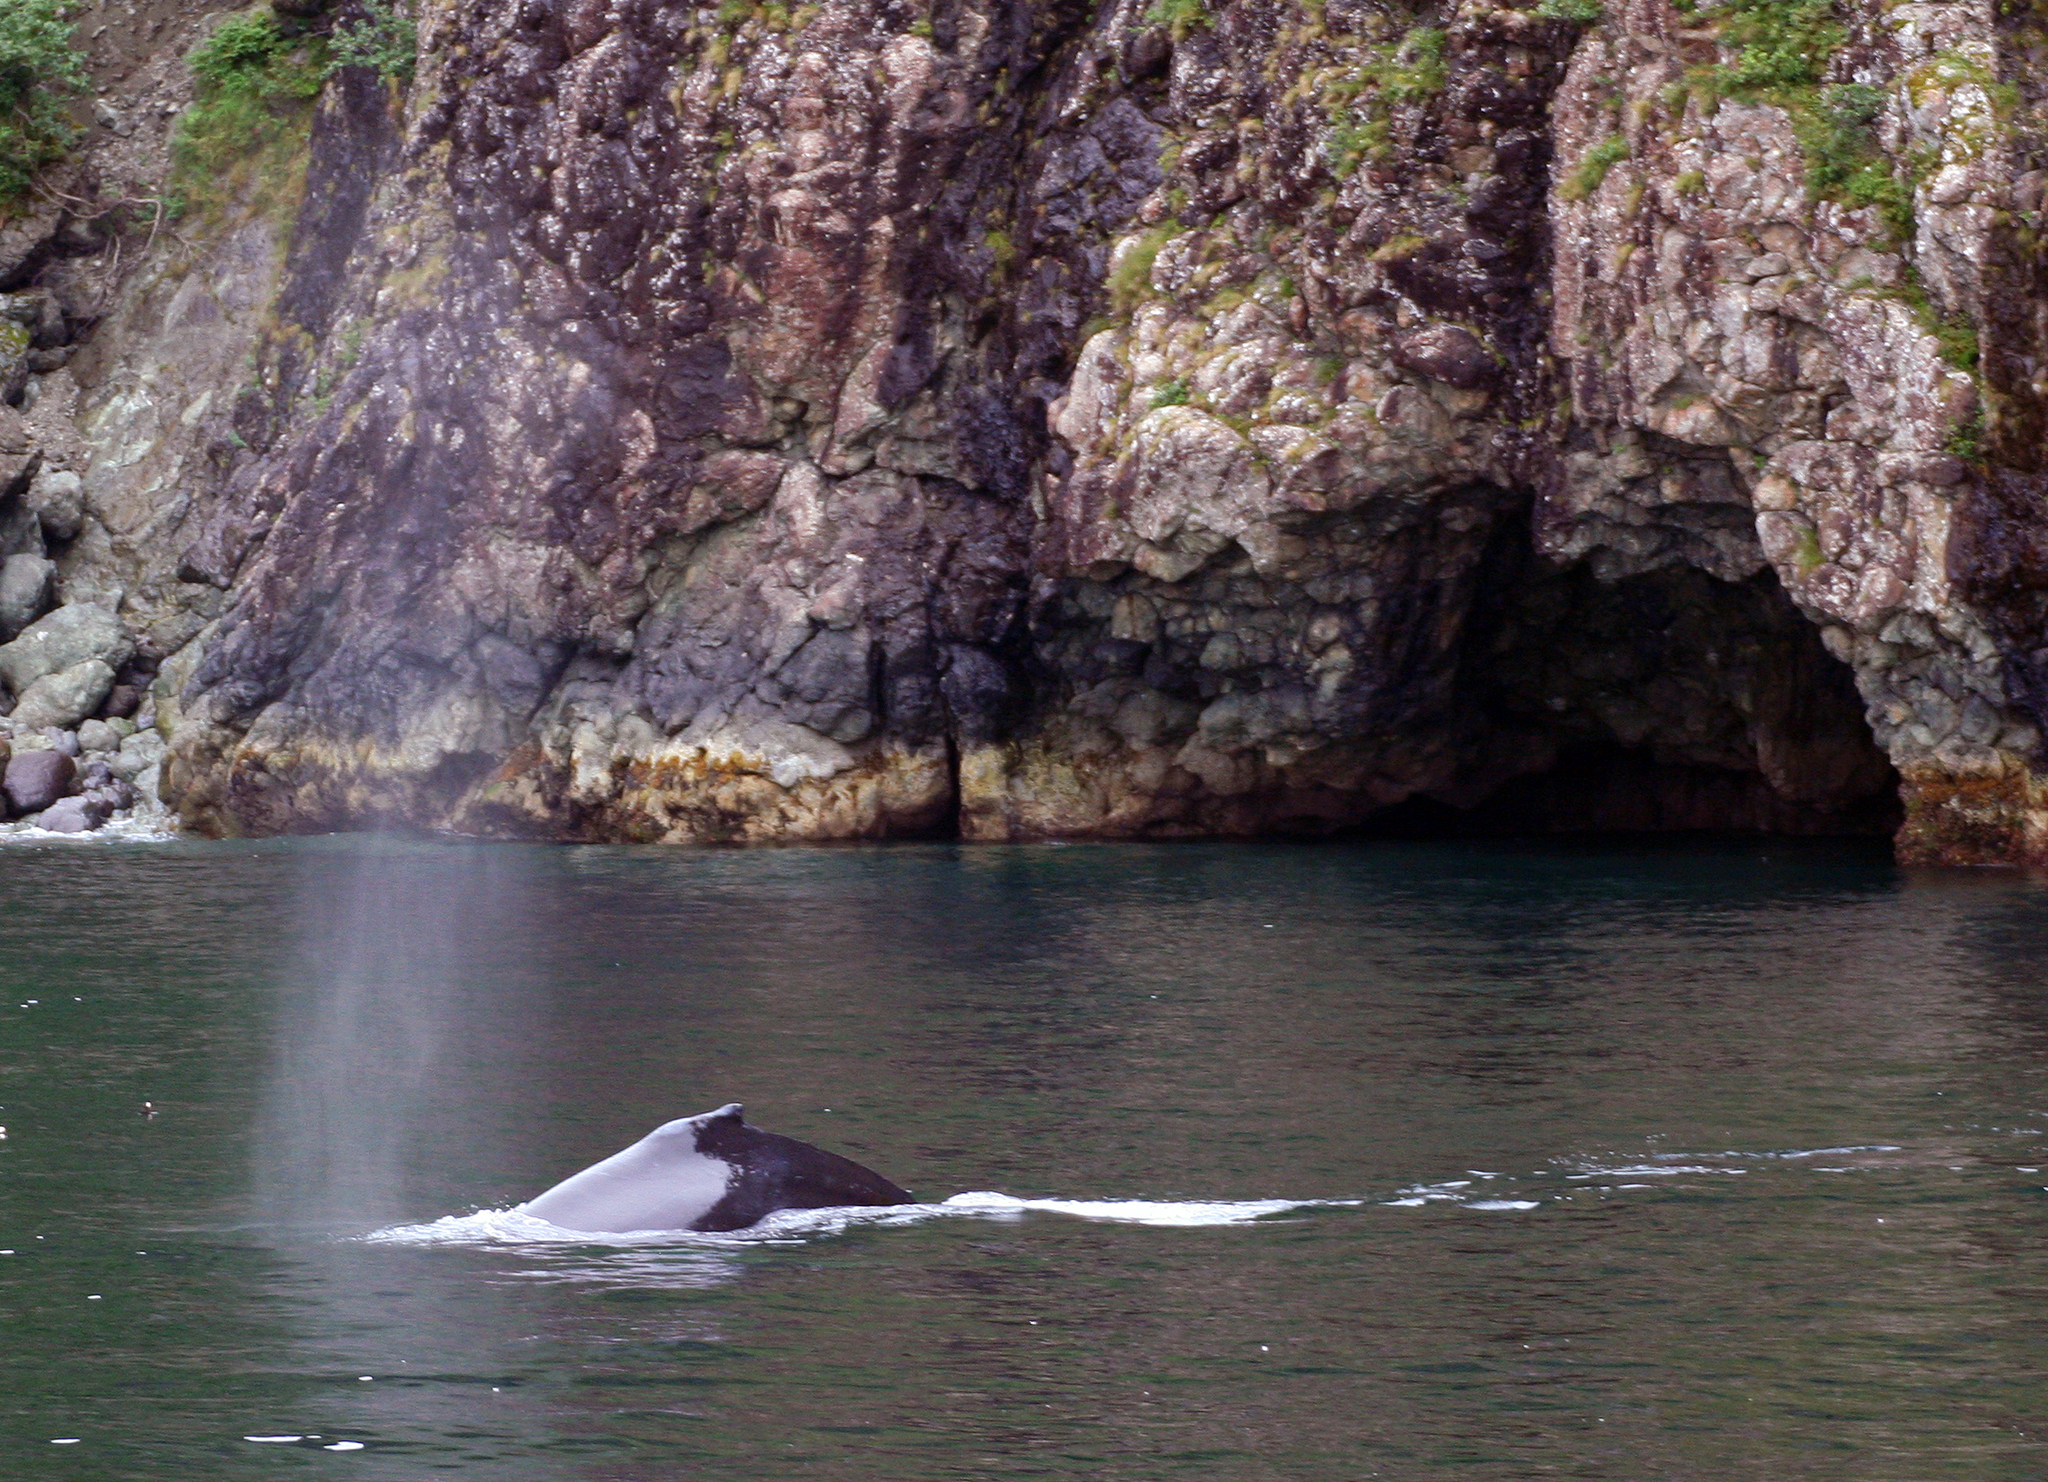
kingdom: Animalia
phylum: Chordata
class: Mammalia
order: Cetacea
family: Balaenopteridae
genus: Megaptera
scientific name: Megaptera novaeangliae
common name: Humpback whale
